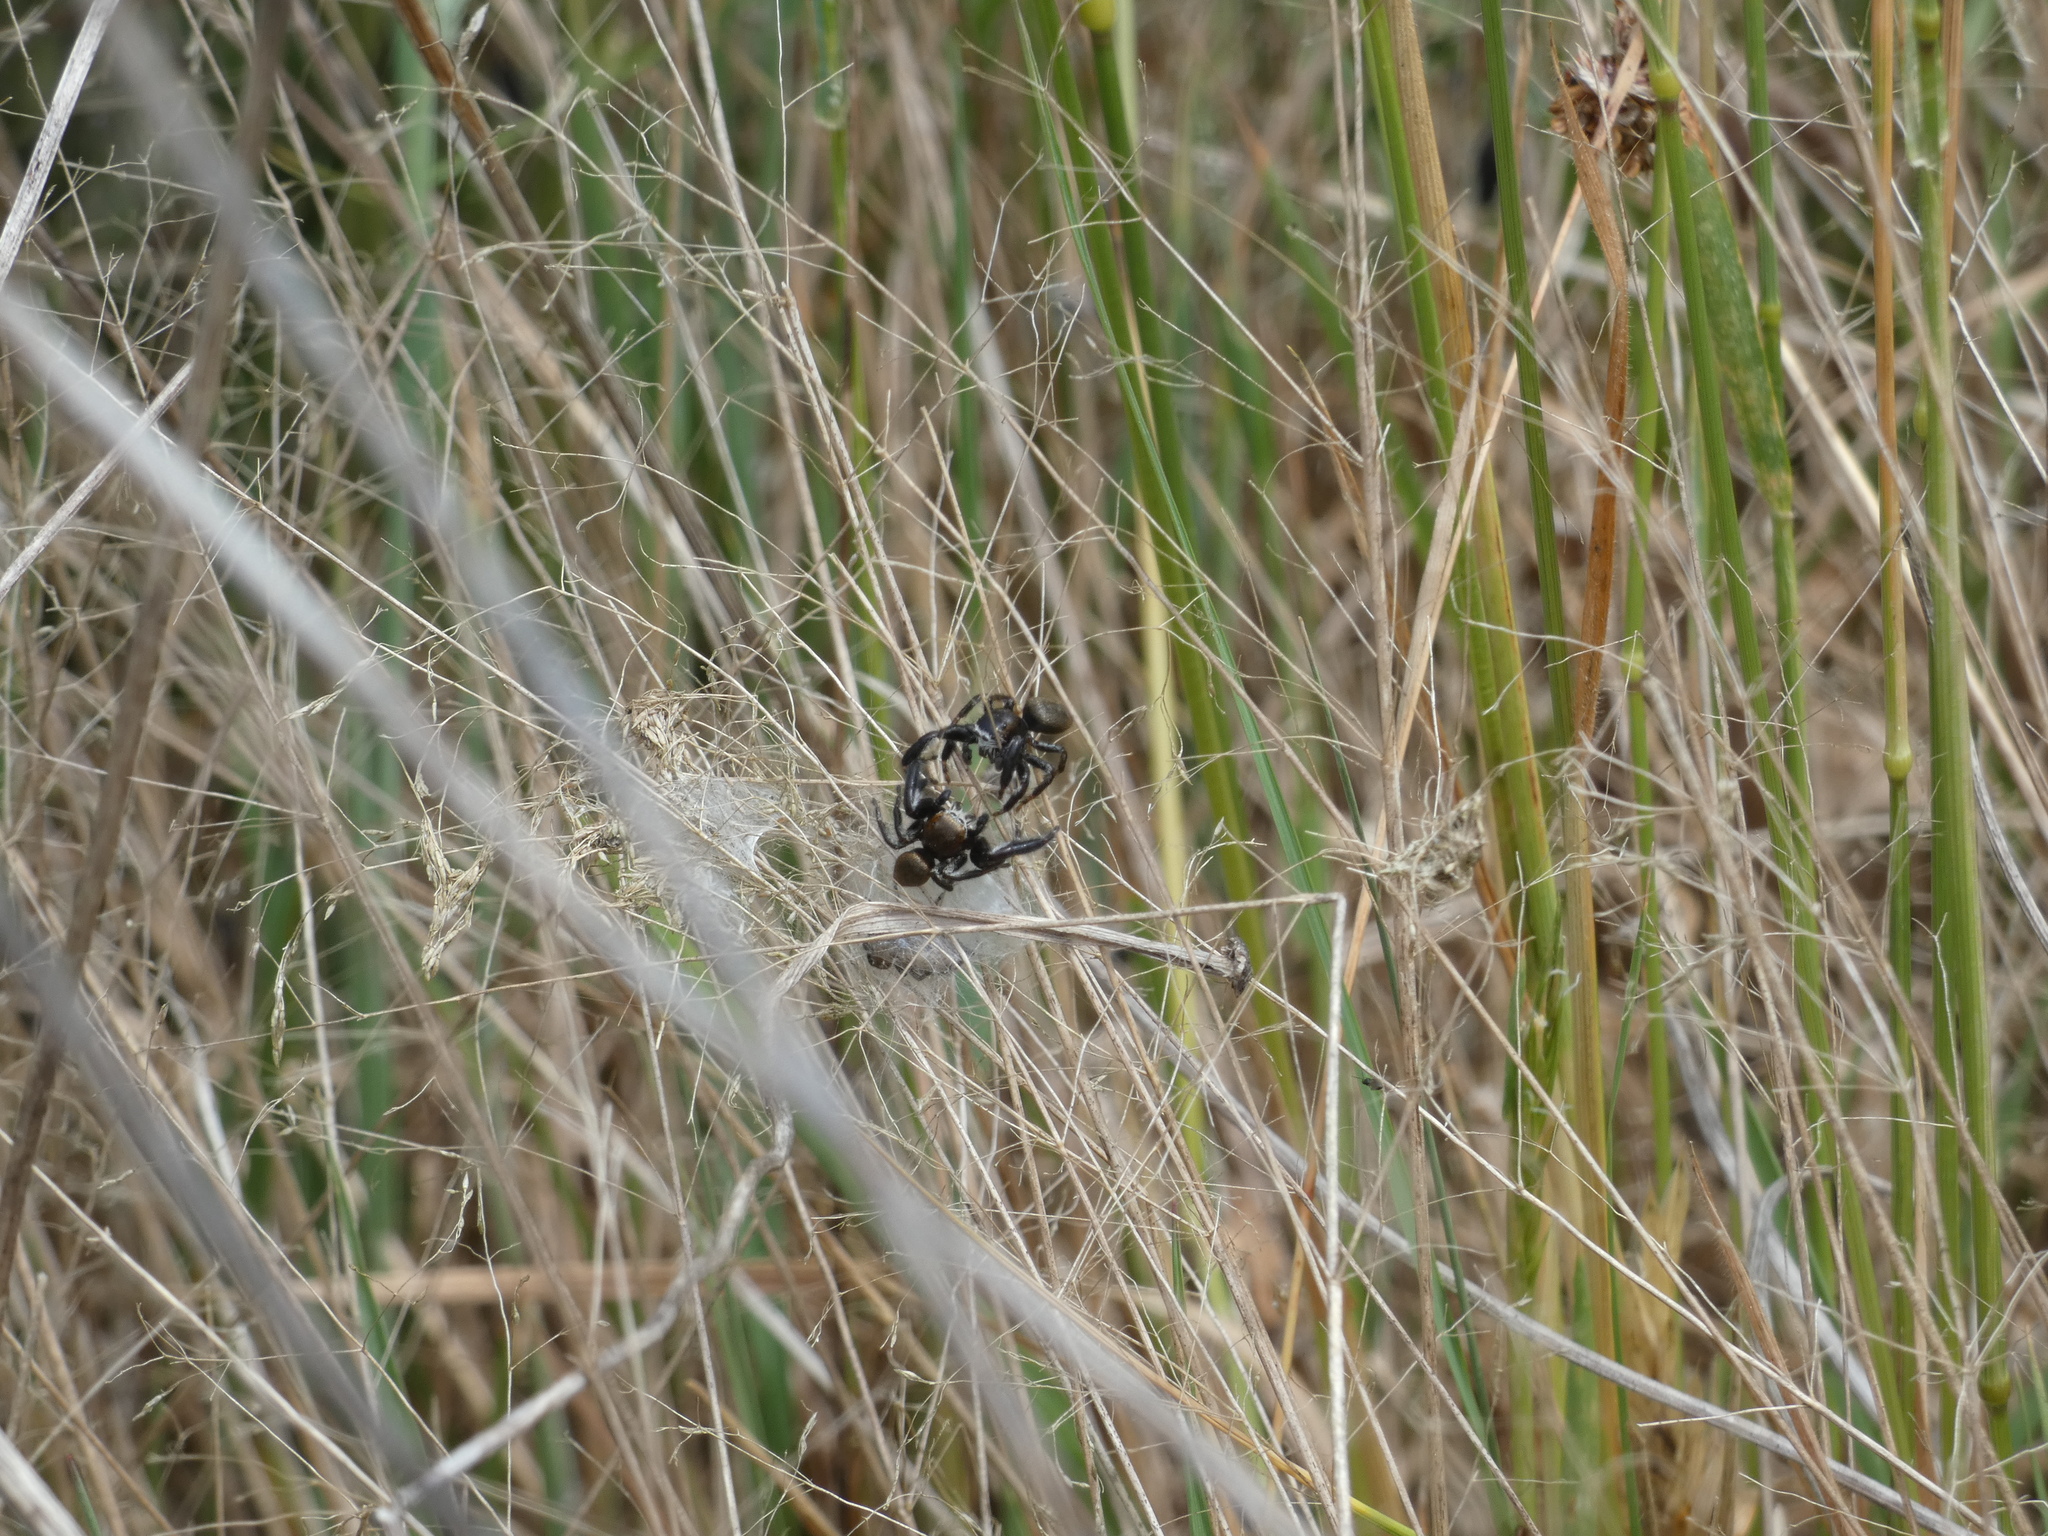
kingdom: Animalia
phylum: Arthropoda
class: Arachnida
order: Araneae
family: Salticidae
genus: Evarcha
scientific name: Evarcha arcuata
